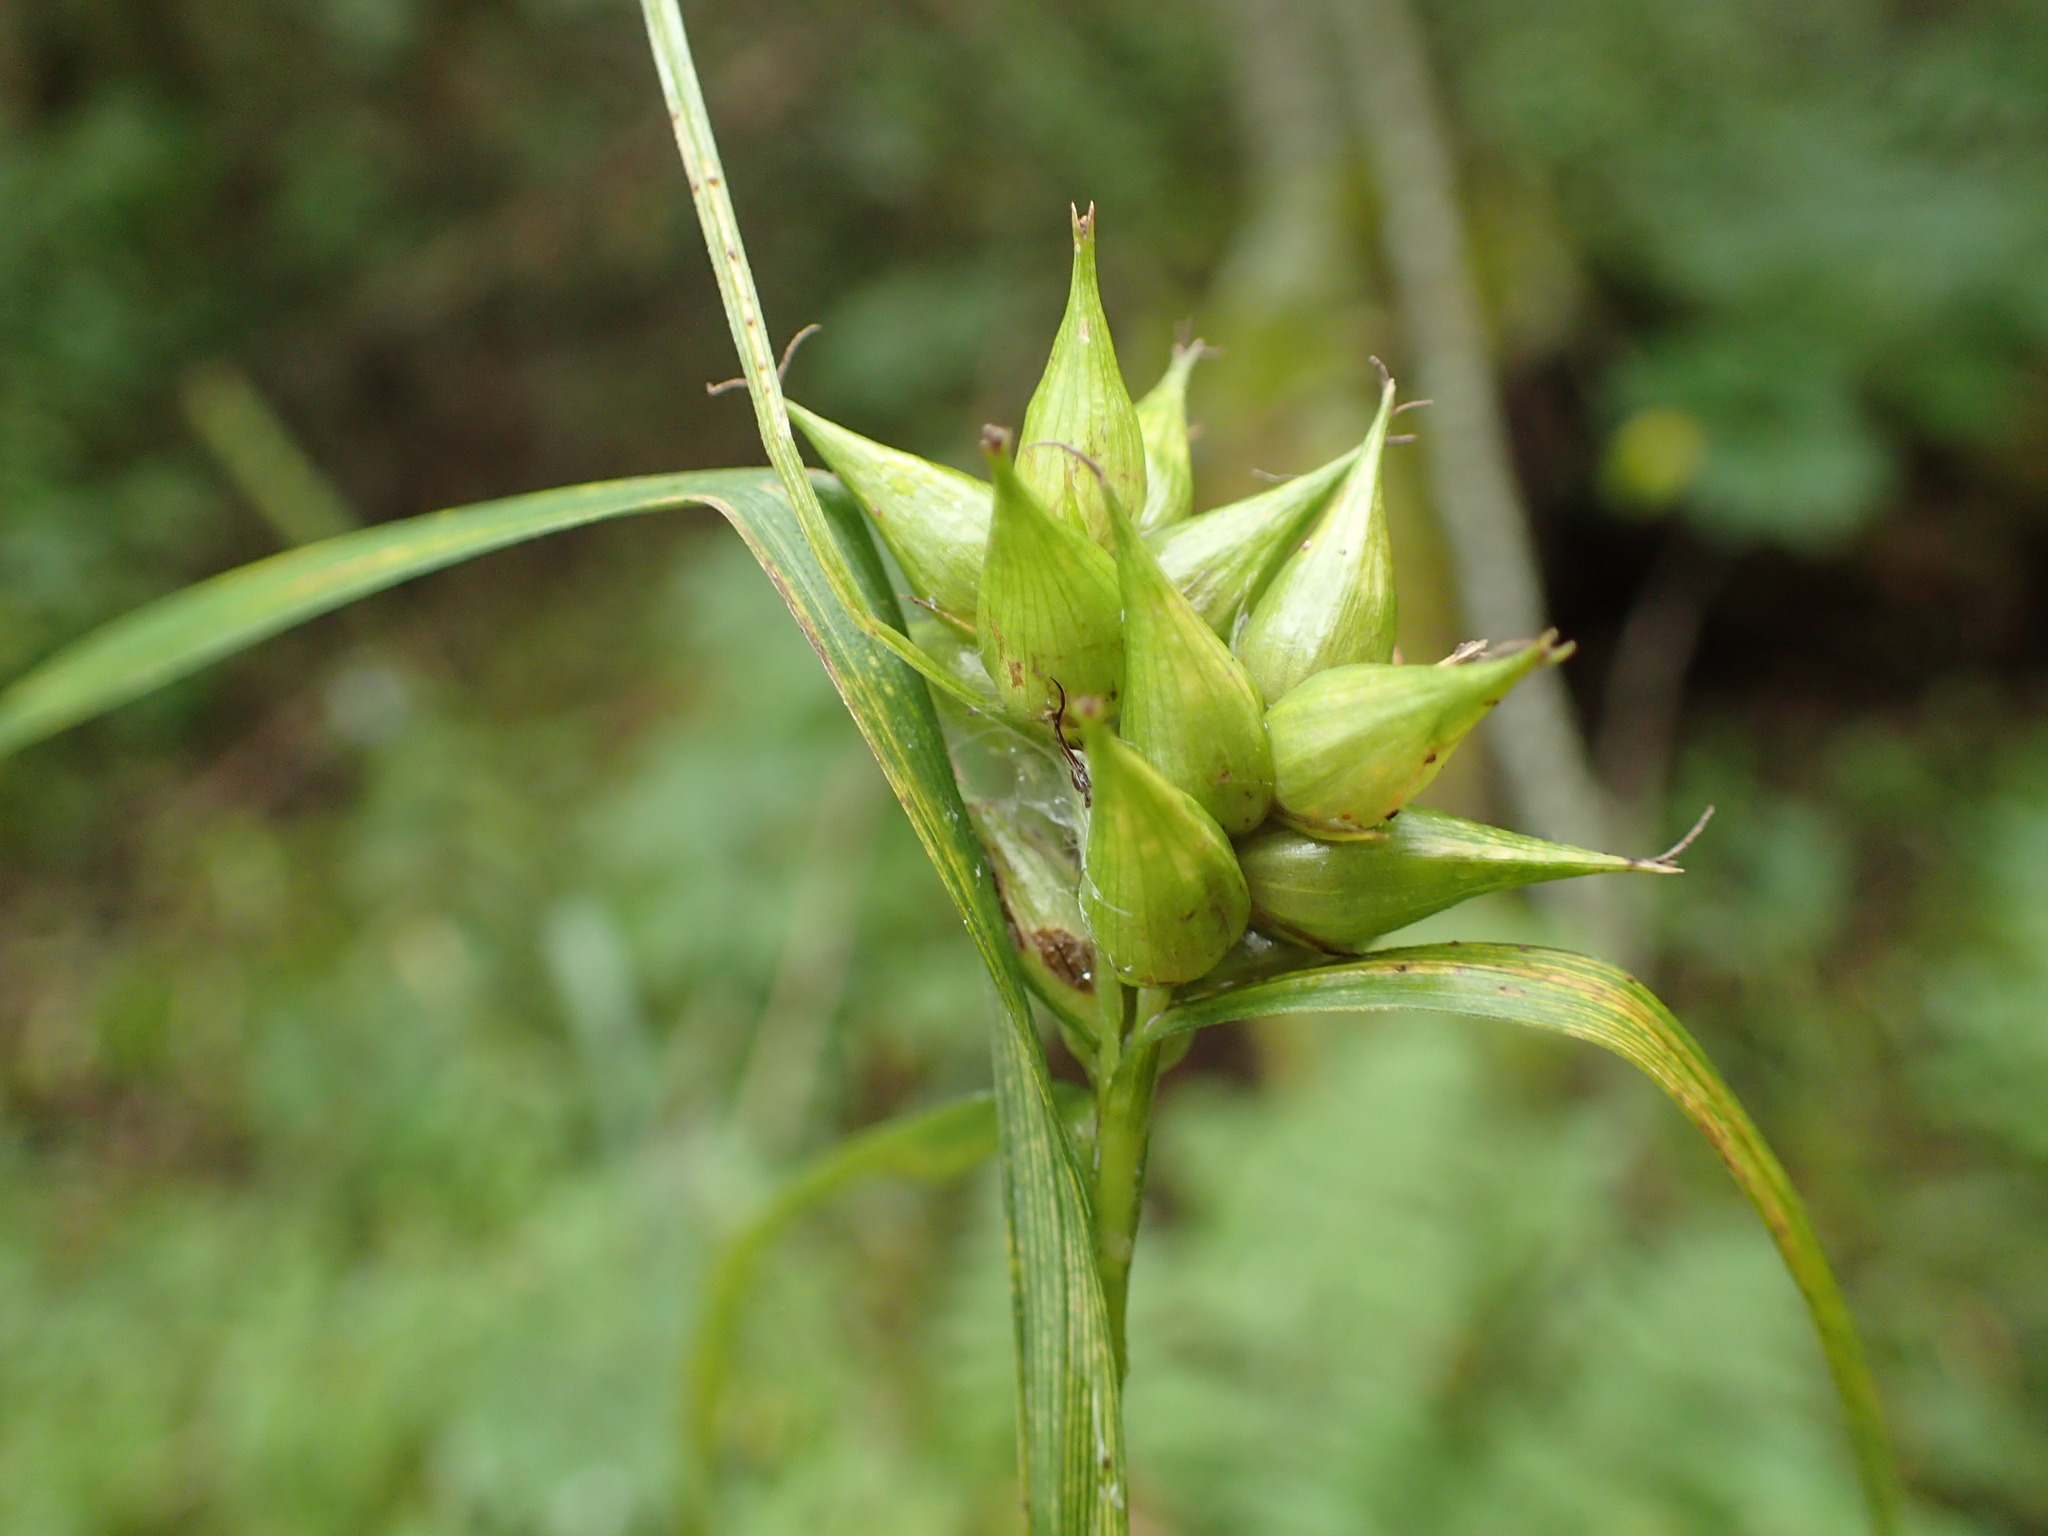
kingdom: Plantae
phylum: Tracheophyta
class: Liliopsida
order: Poales
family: Cyperaceae
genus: Carex
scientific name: Carex intumescens
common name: Greater bladder sedge
